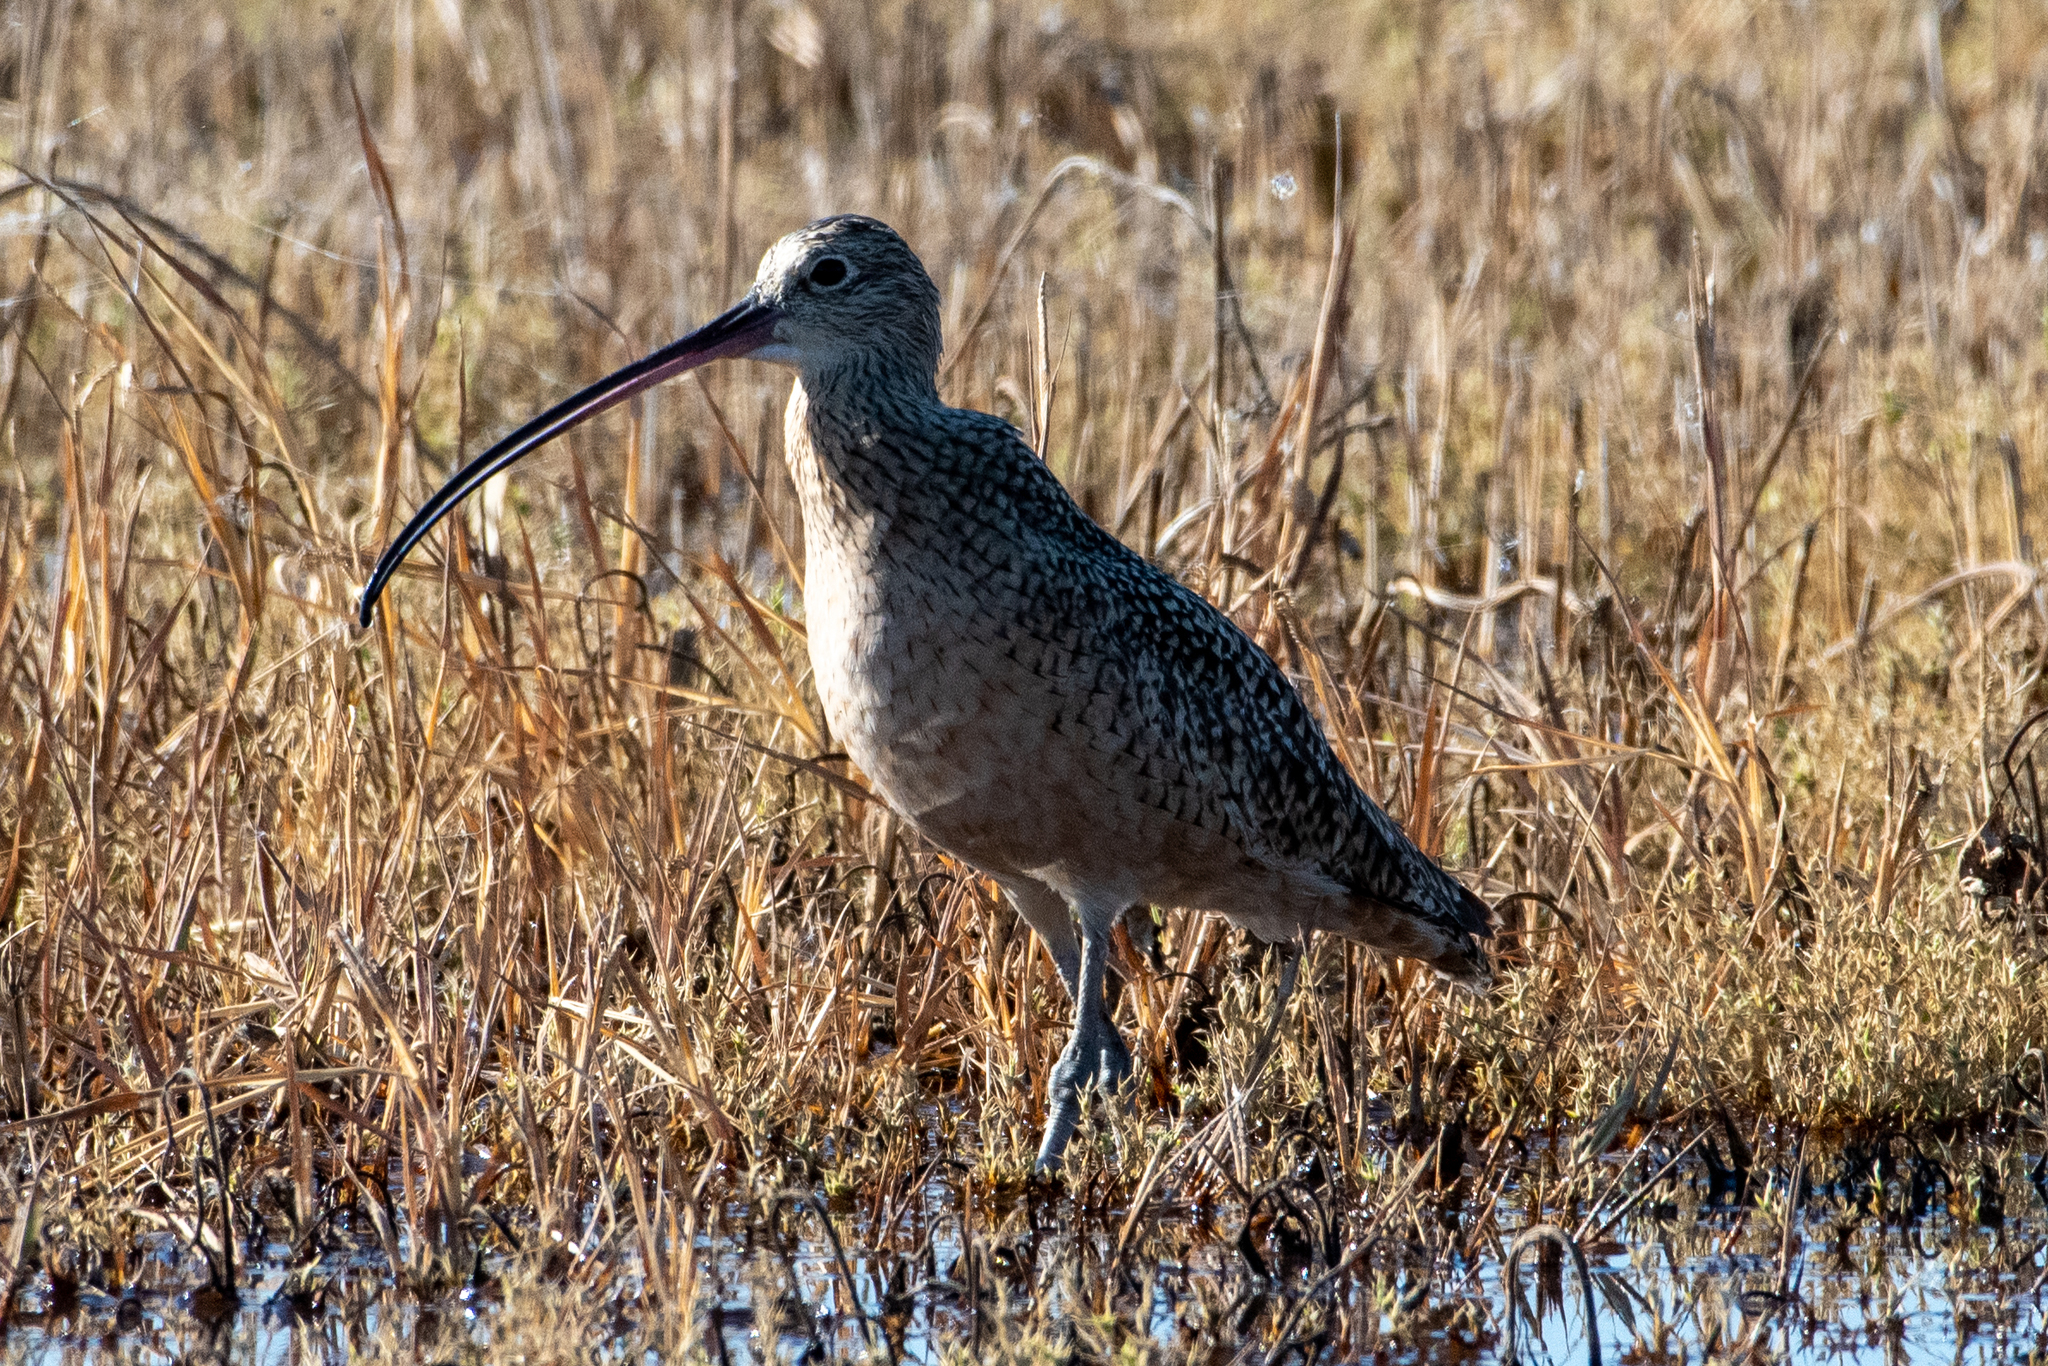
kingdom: Animalia
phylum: Chordata
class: Aves
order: Charadriiformes
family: Scolopacidae
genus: Numenius
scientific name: Numenius americanus
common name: Long-billed curlew
